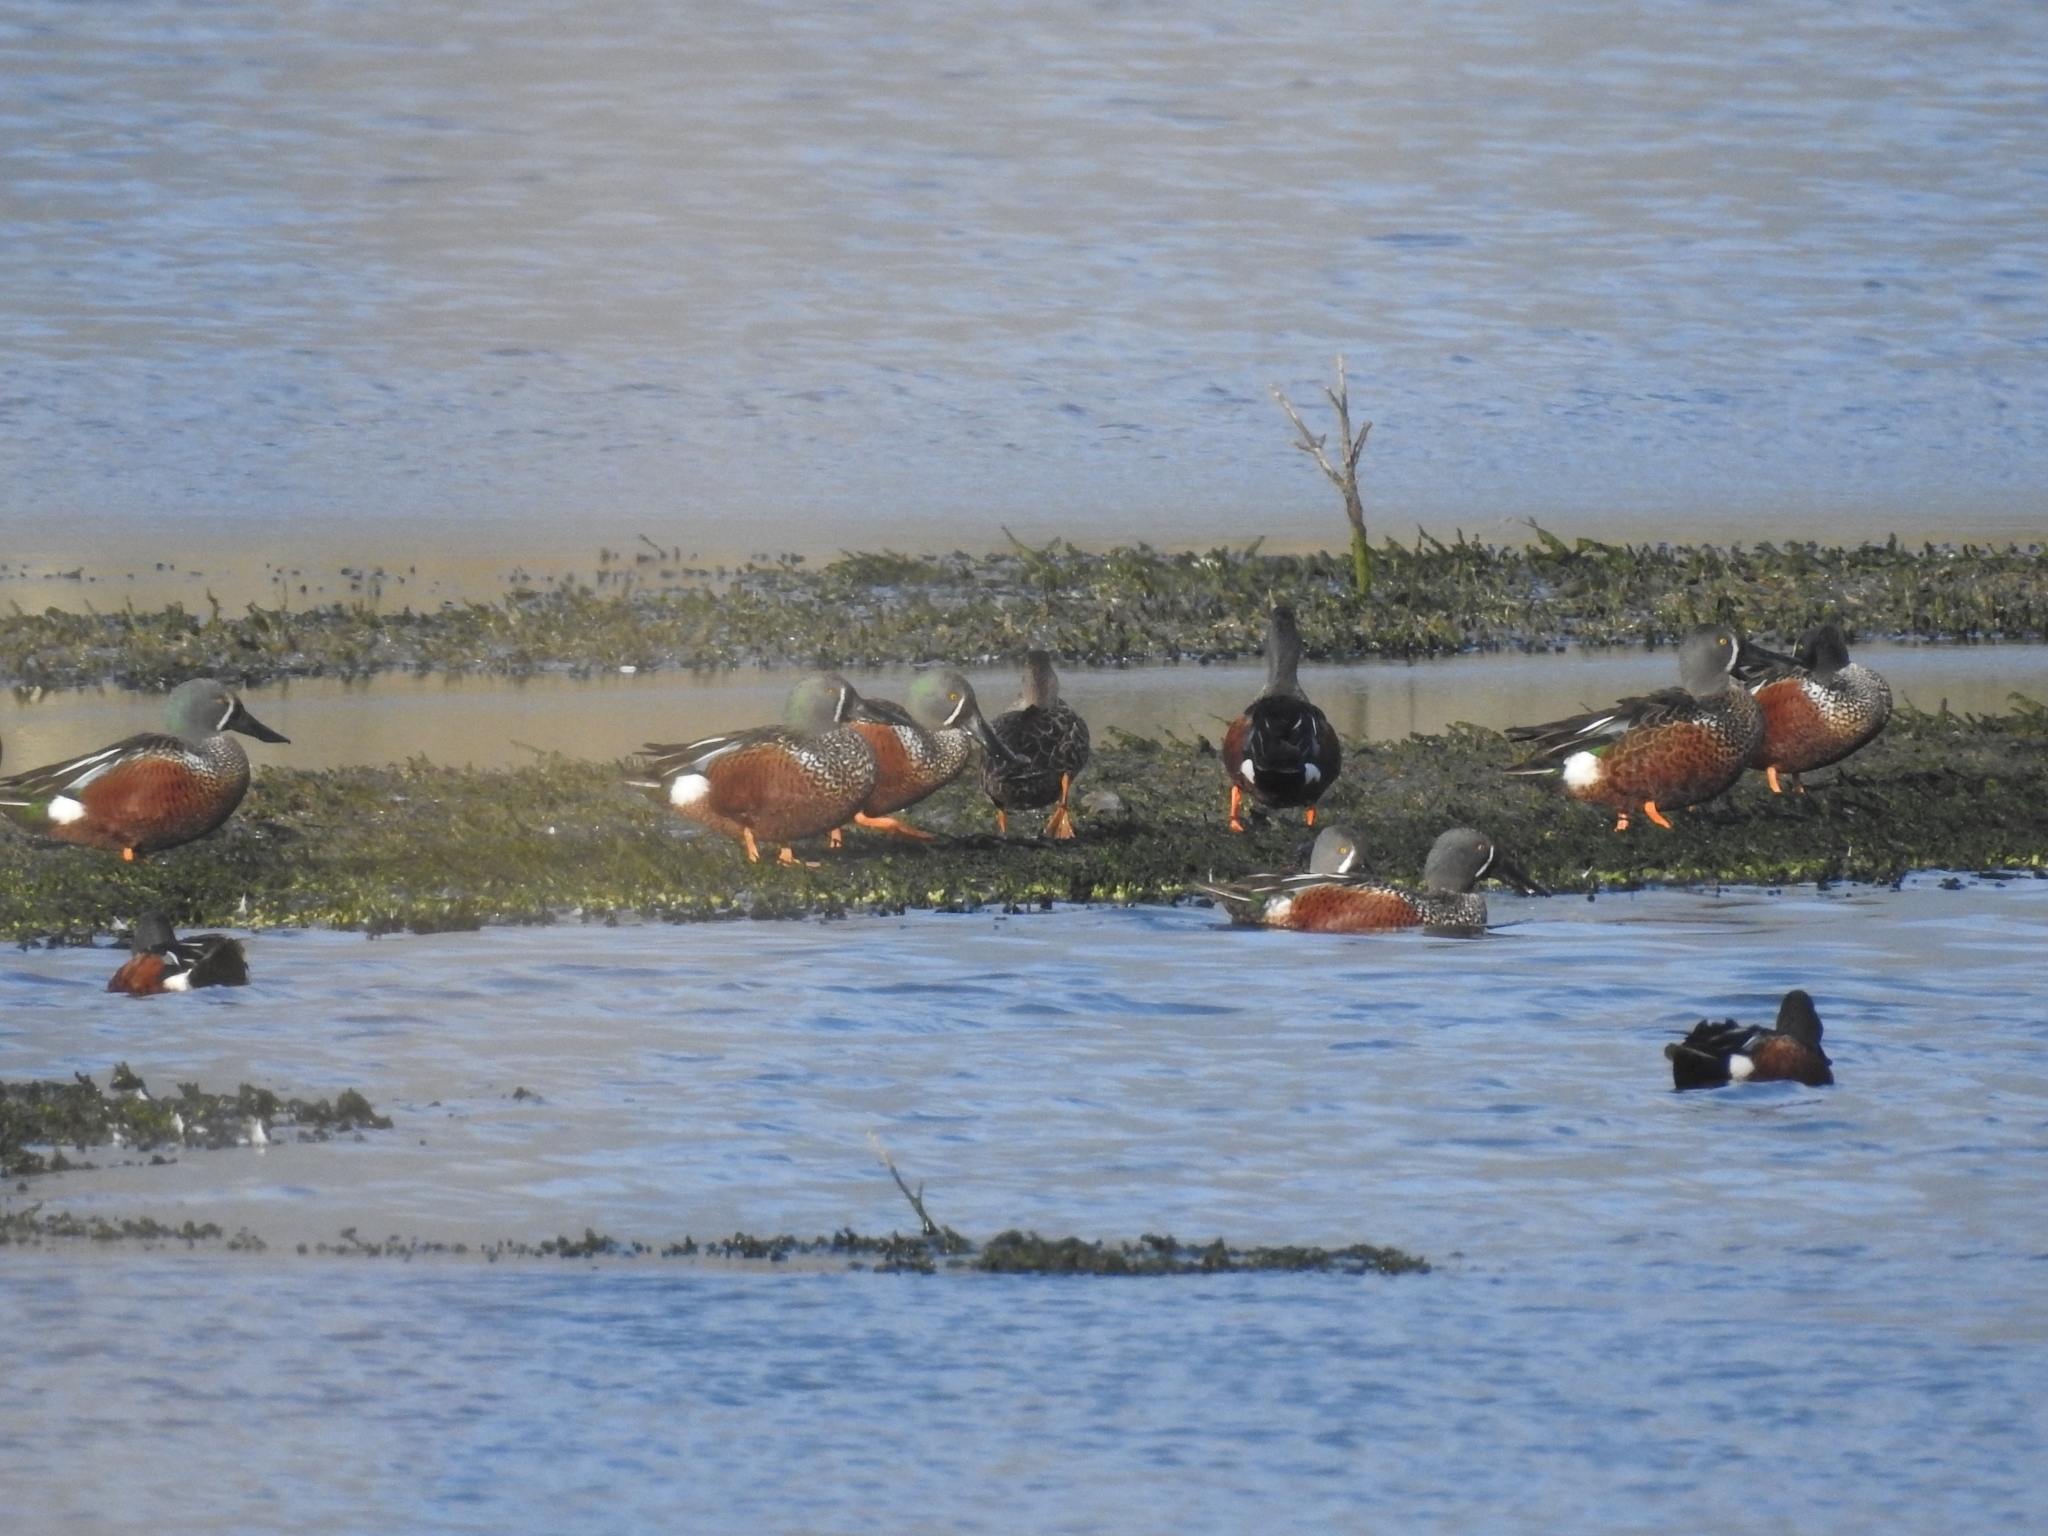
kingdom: Animalia
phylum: Chordata
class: Aves
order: Anseriformes
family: Anatidae
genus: Spatula
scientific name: Spatula rhynchotis
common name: Australian shoveler
